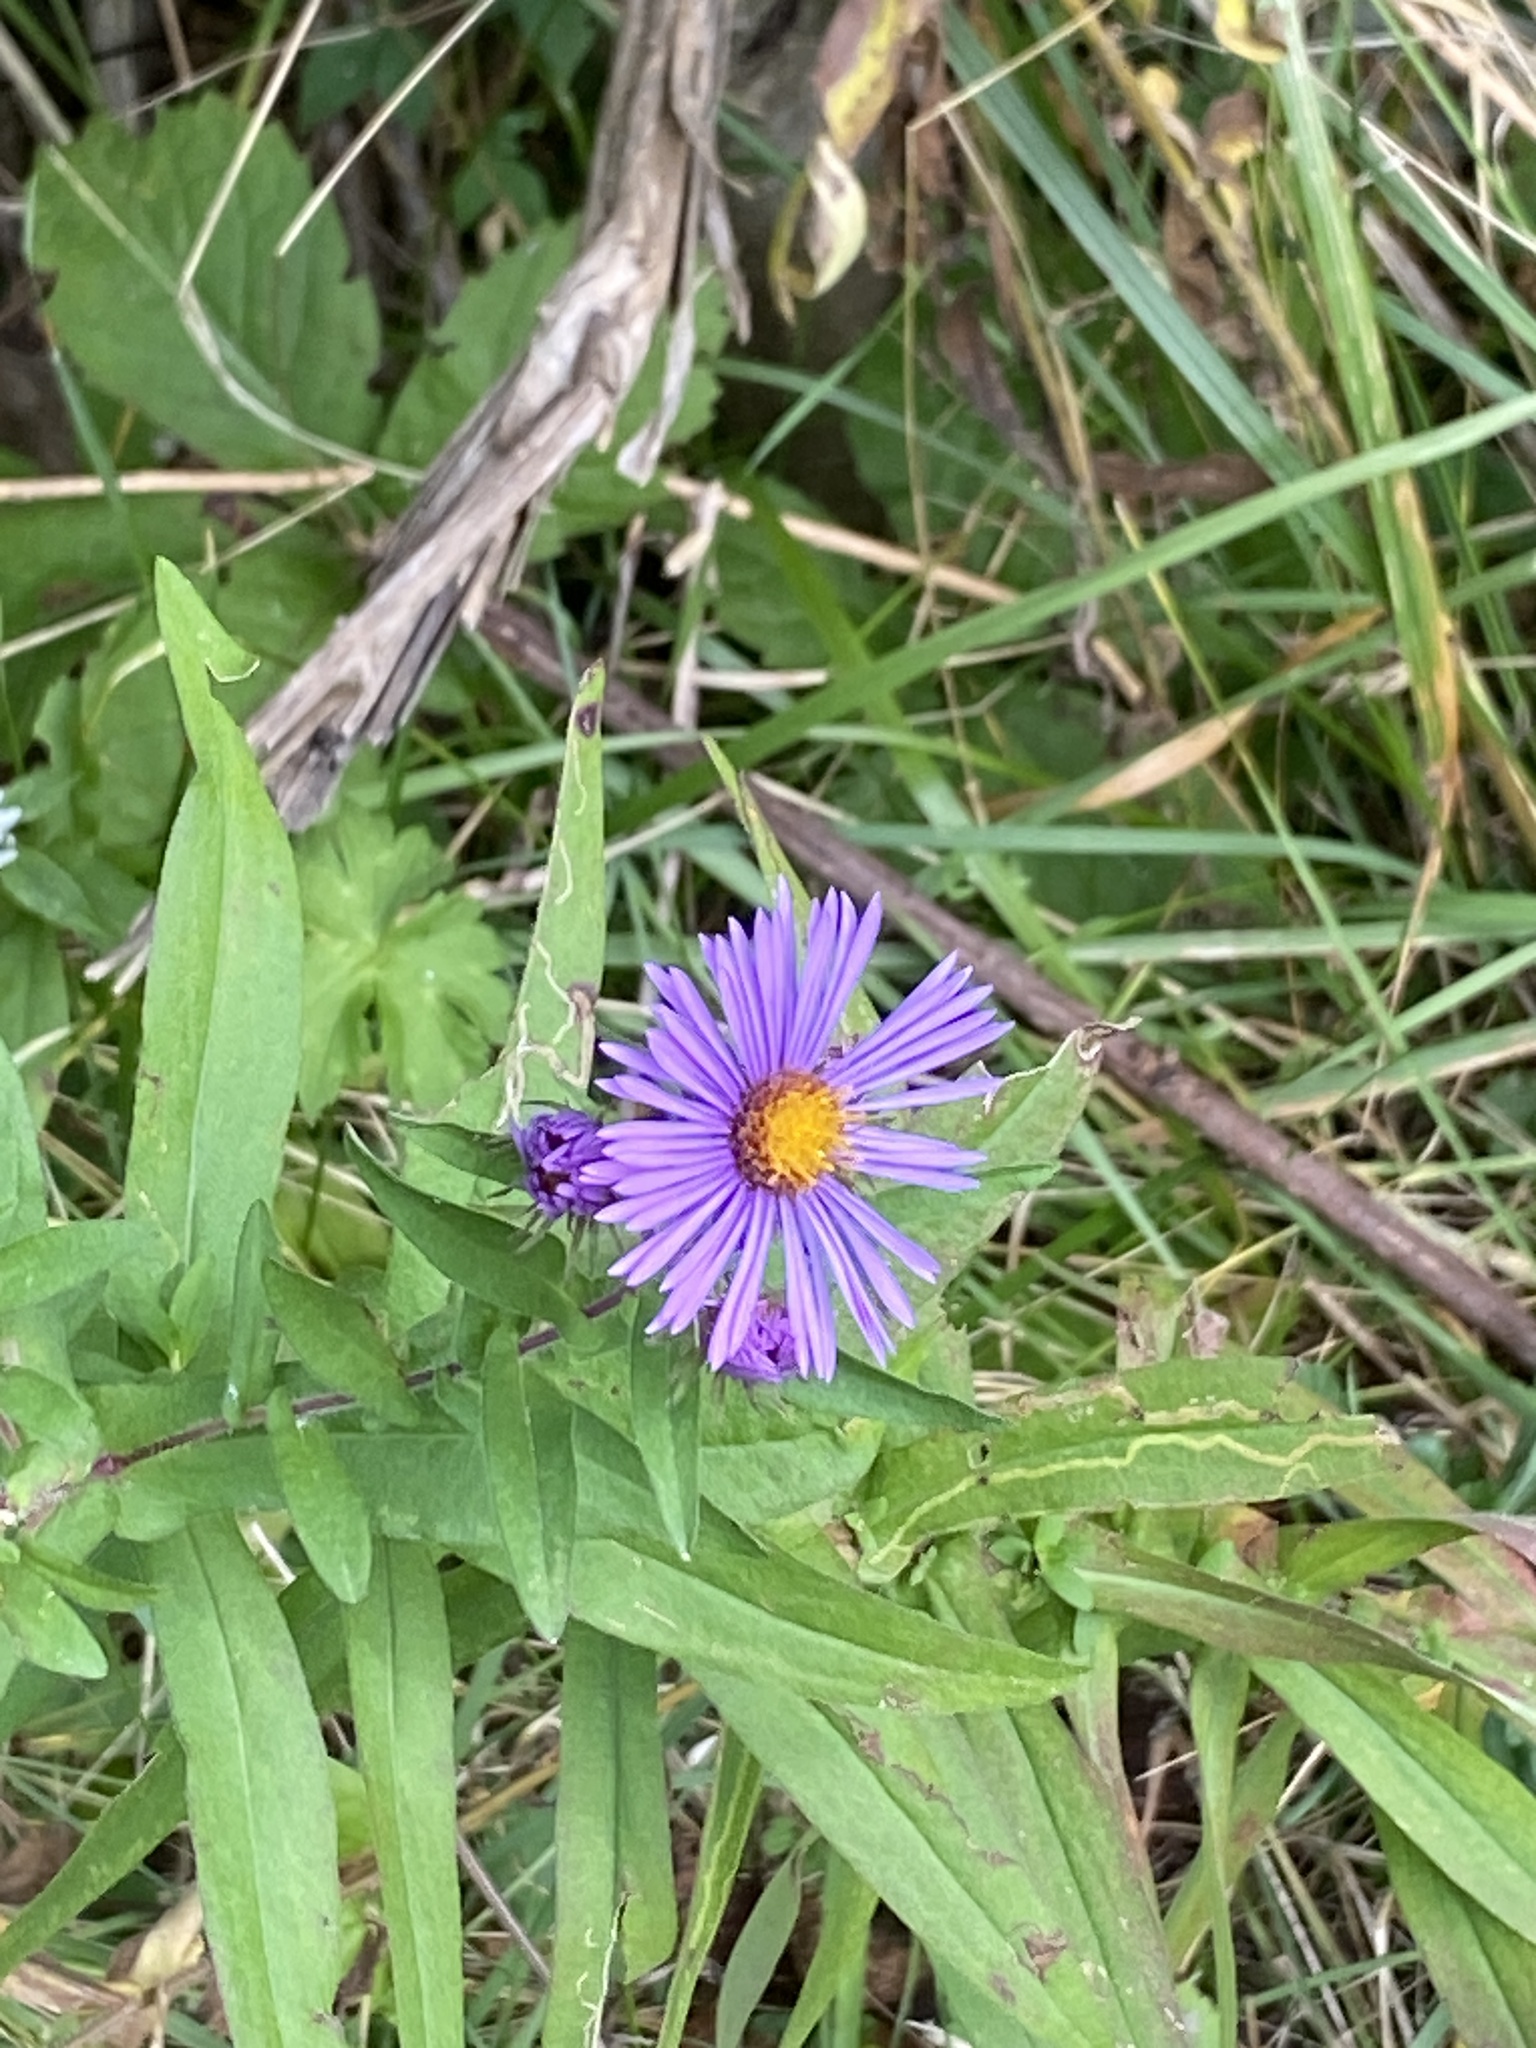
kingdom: Plantae
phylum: Tracheophyta
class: Magnoliopsida
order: Asterales
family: Asteraceae
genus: Symphyotrichum
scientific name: Symphyotrichum novae-angliae
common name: Michaelmas daisy
